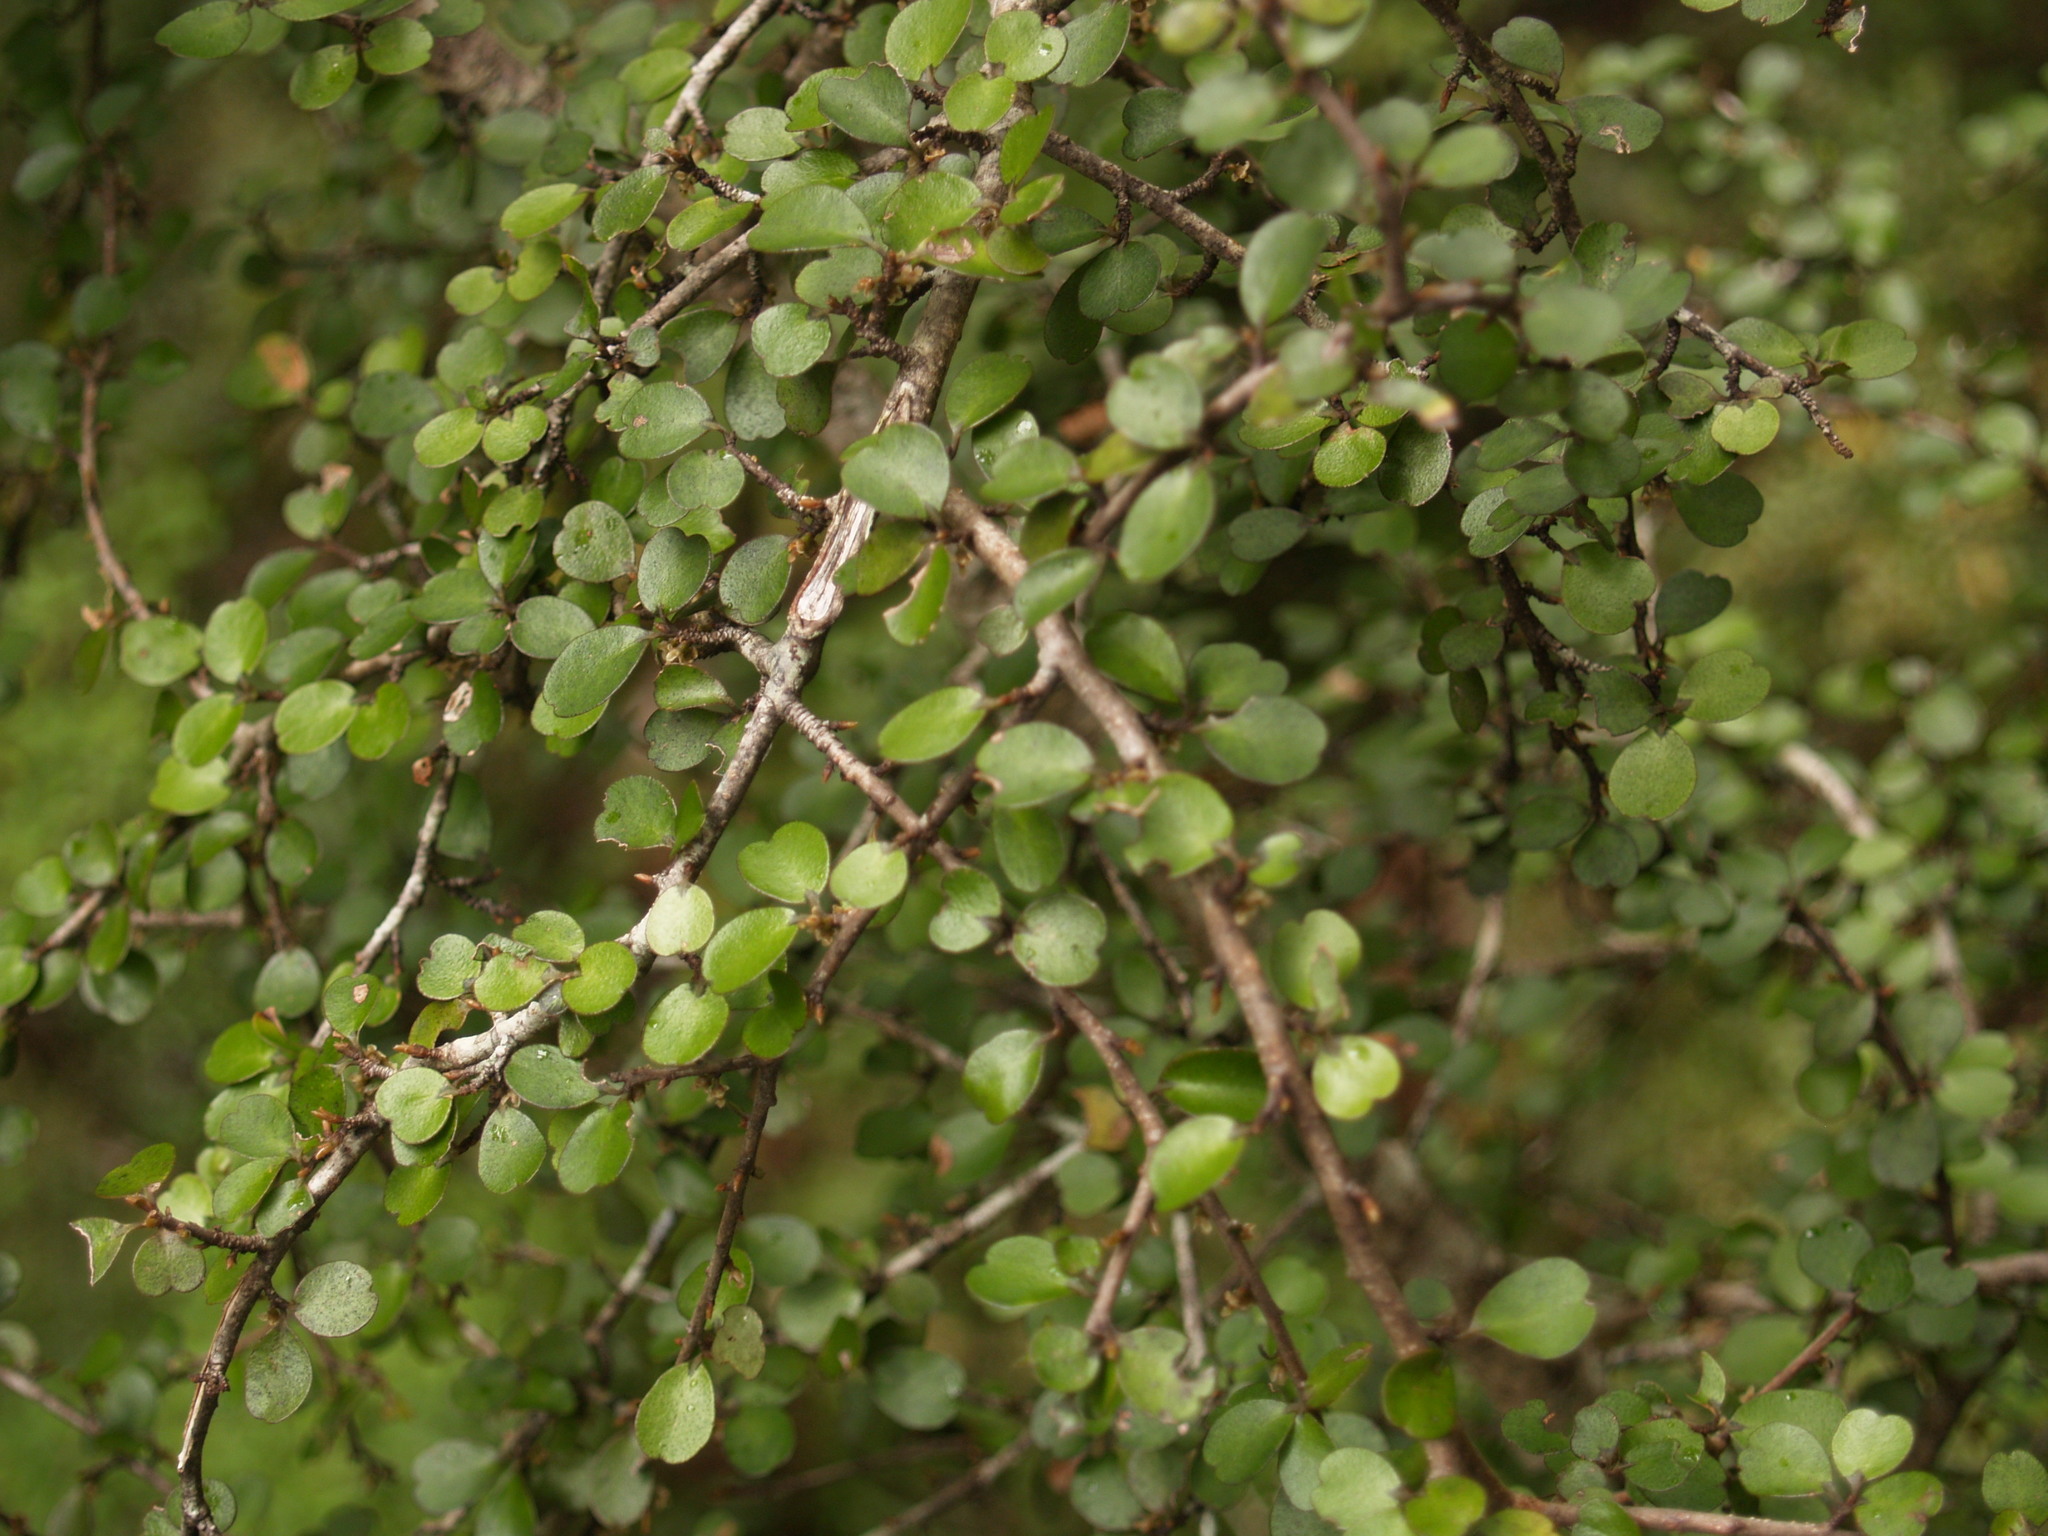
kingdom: Plantae
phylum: Tracheophyta
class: Magnoliopsida
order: Ericales
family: Primulaceae
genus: Myrsine
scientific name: Myrsine divaricata
